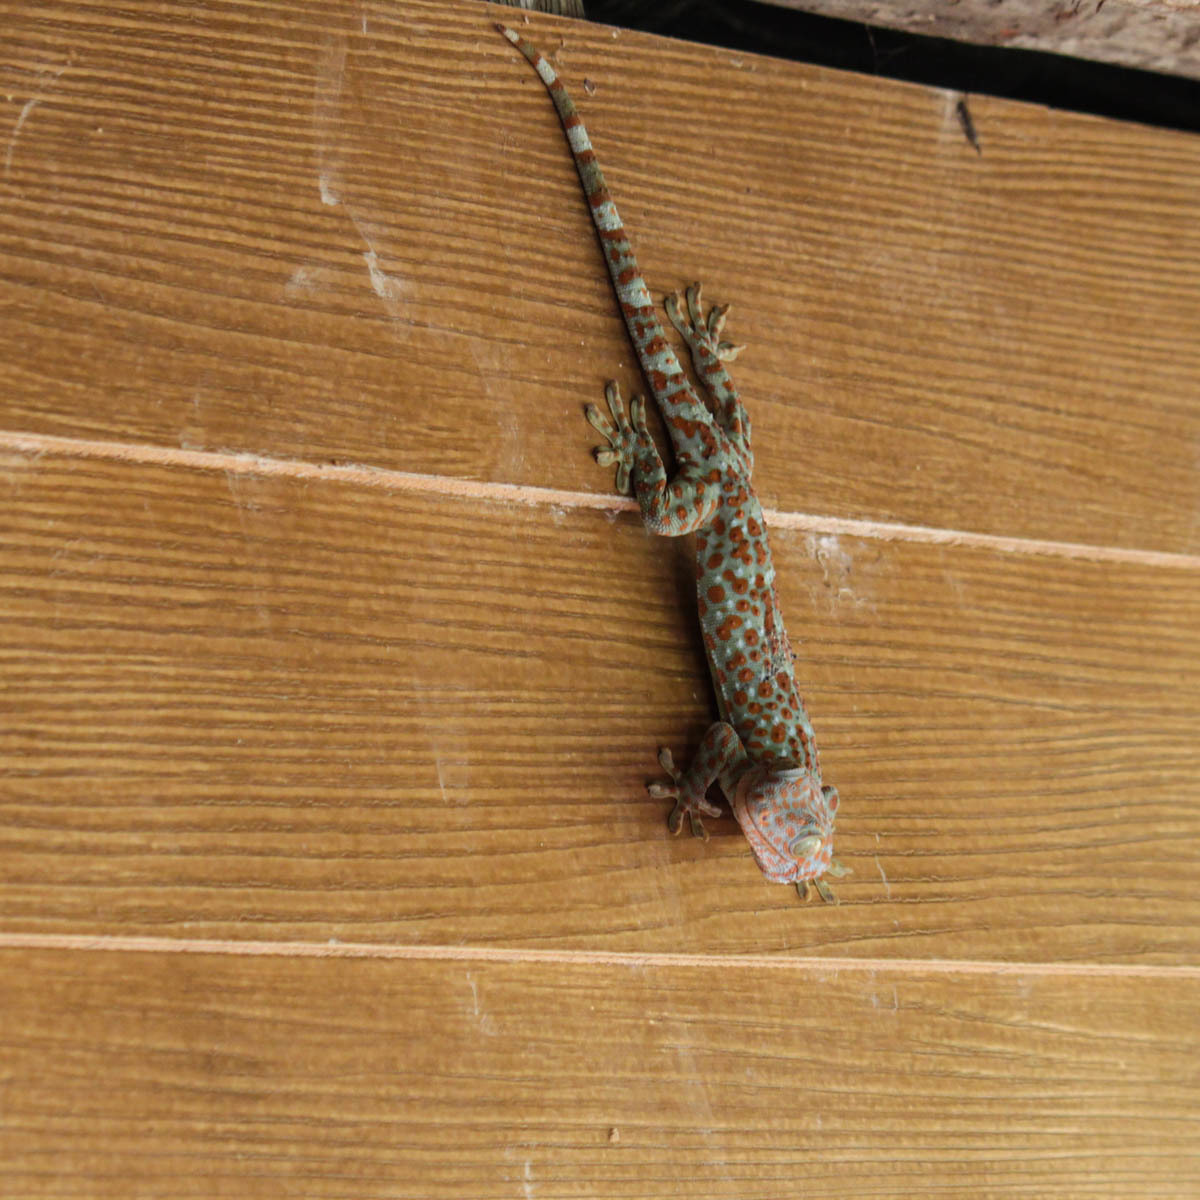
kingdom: Animalia
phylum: Chordata
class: Squamata
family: Gekkonidae
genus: Gekko
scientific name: Gekko gecko
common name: Tokay gecko
